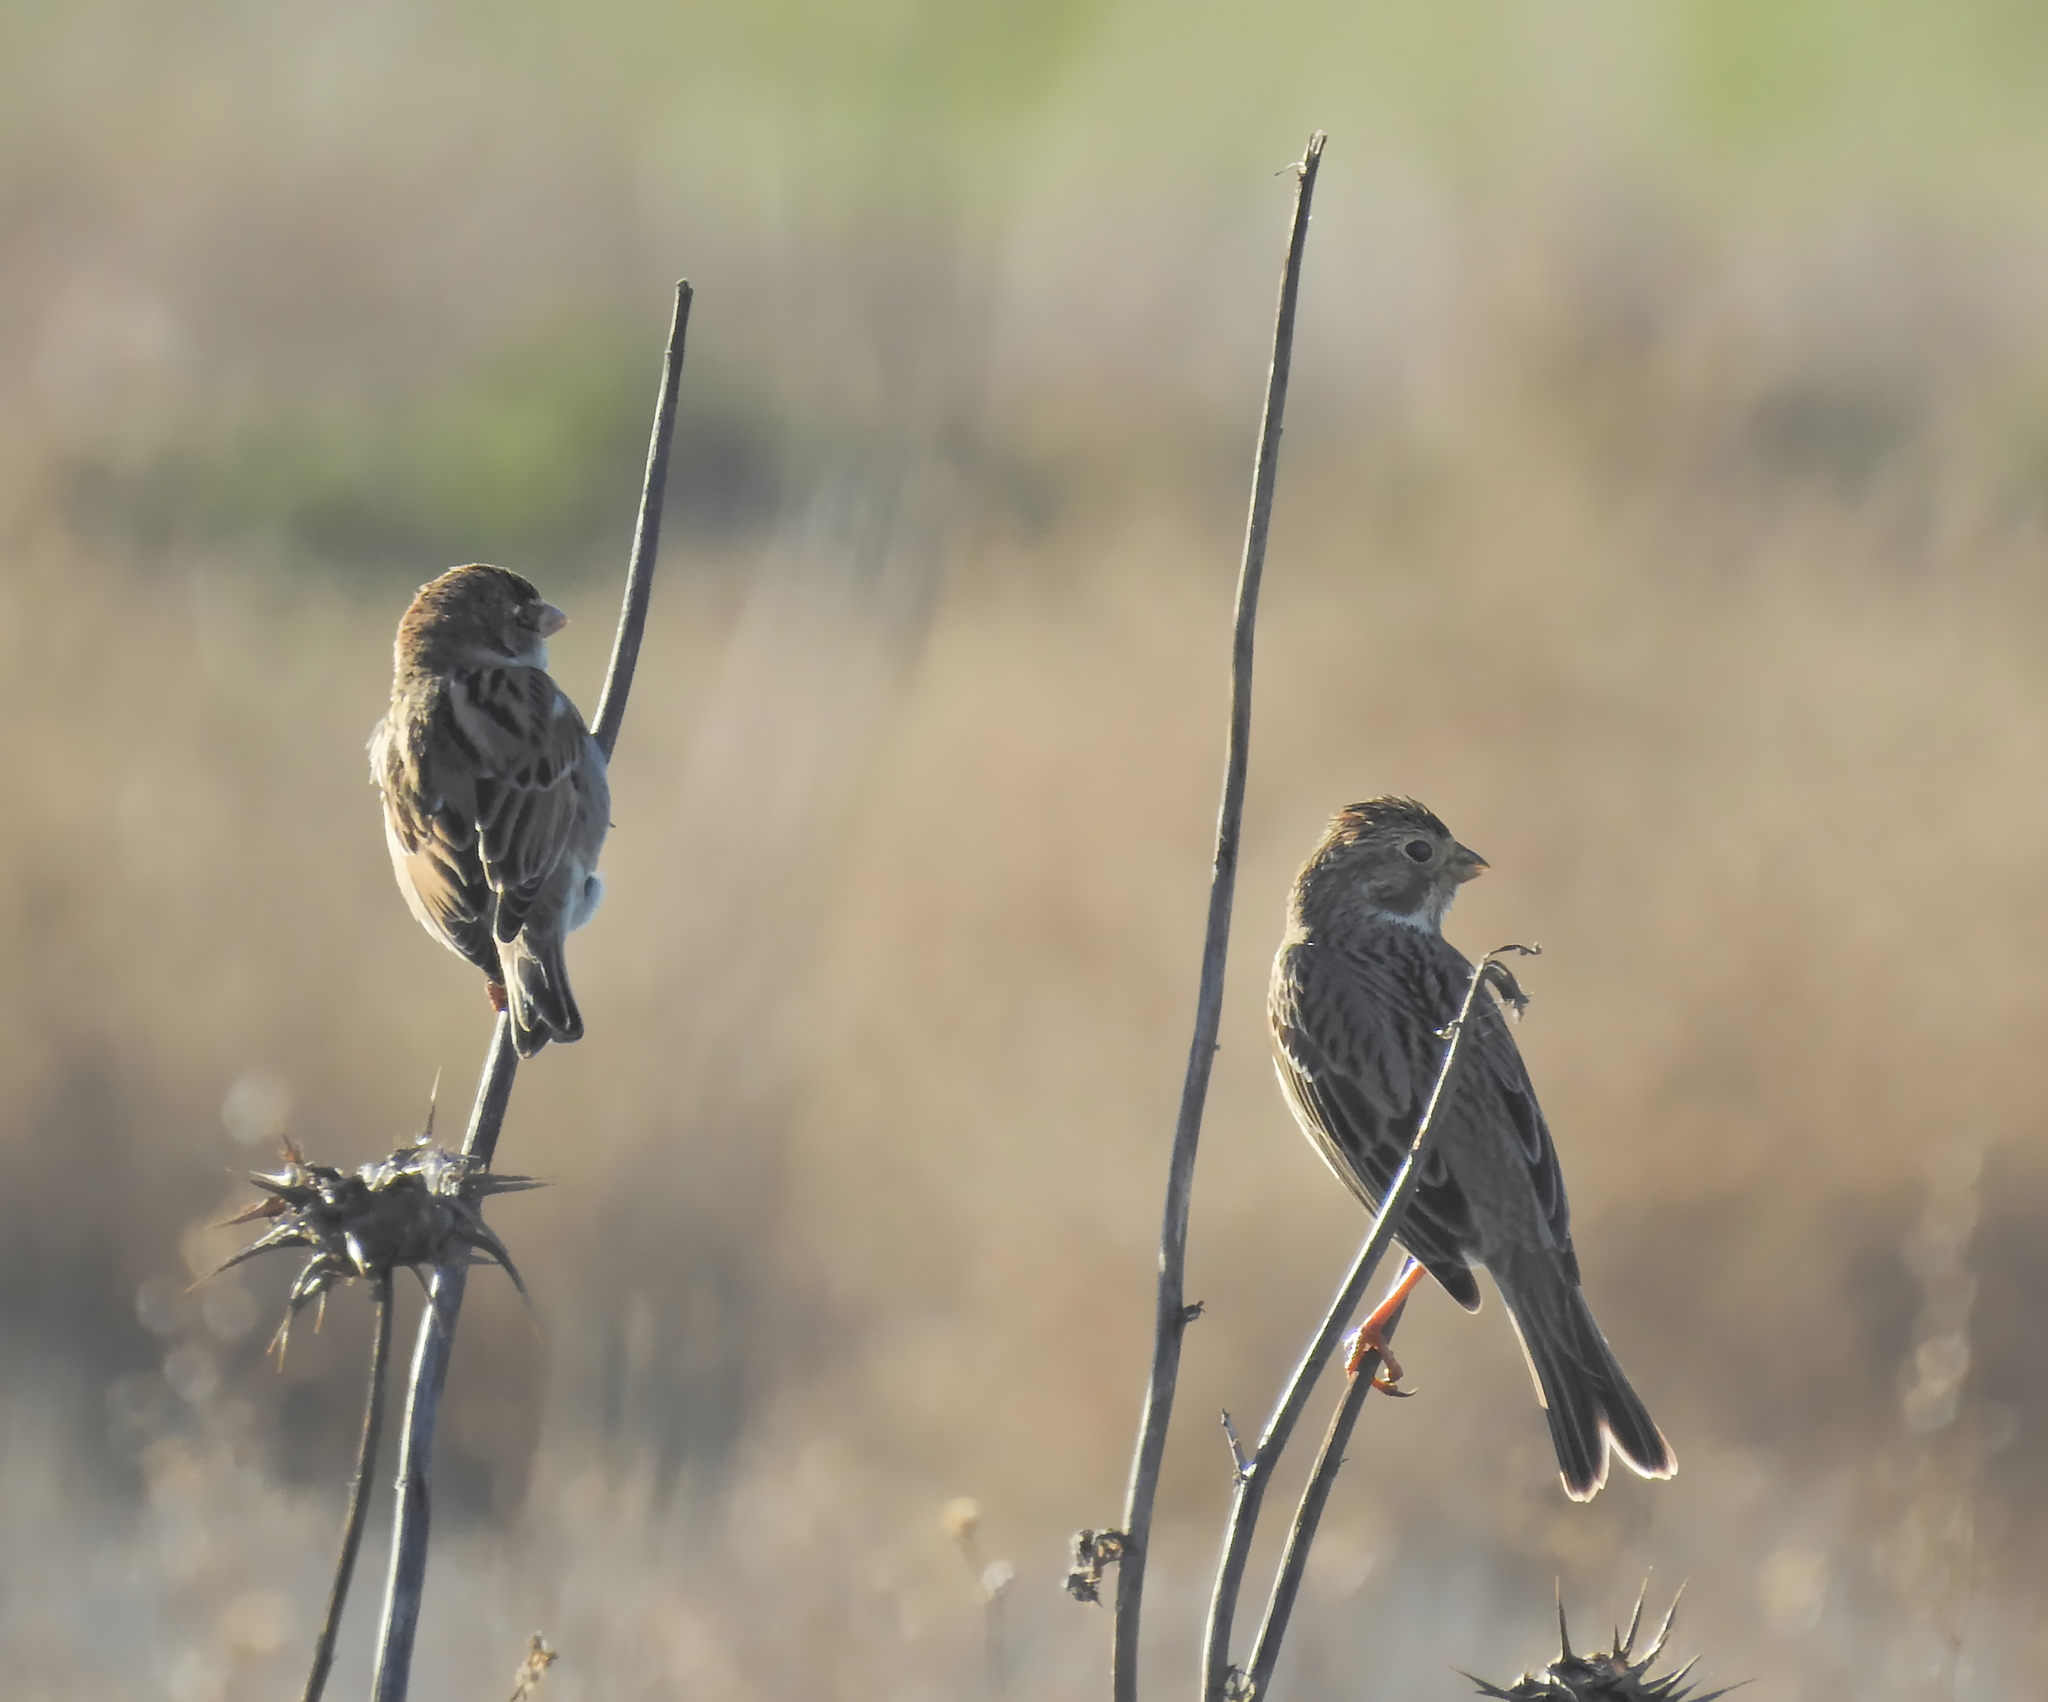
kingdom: Animalia
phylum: Chordata
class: Aves
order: Passeriformes
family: Passeridae
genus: Passer
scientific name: Passer hispaniolensis
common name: Spanish sparrow
